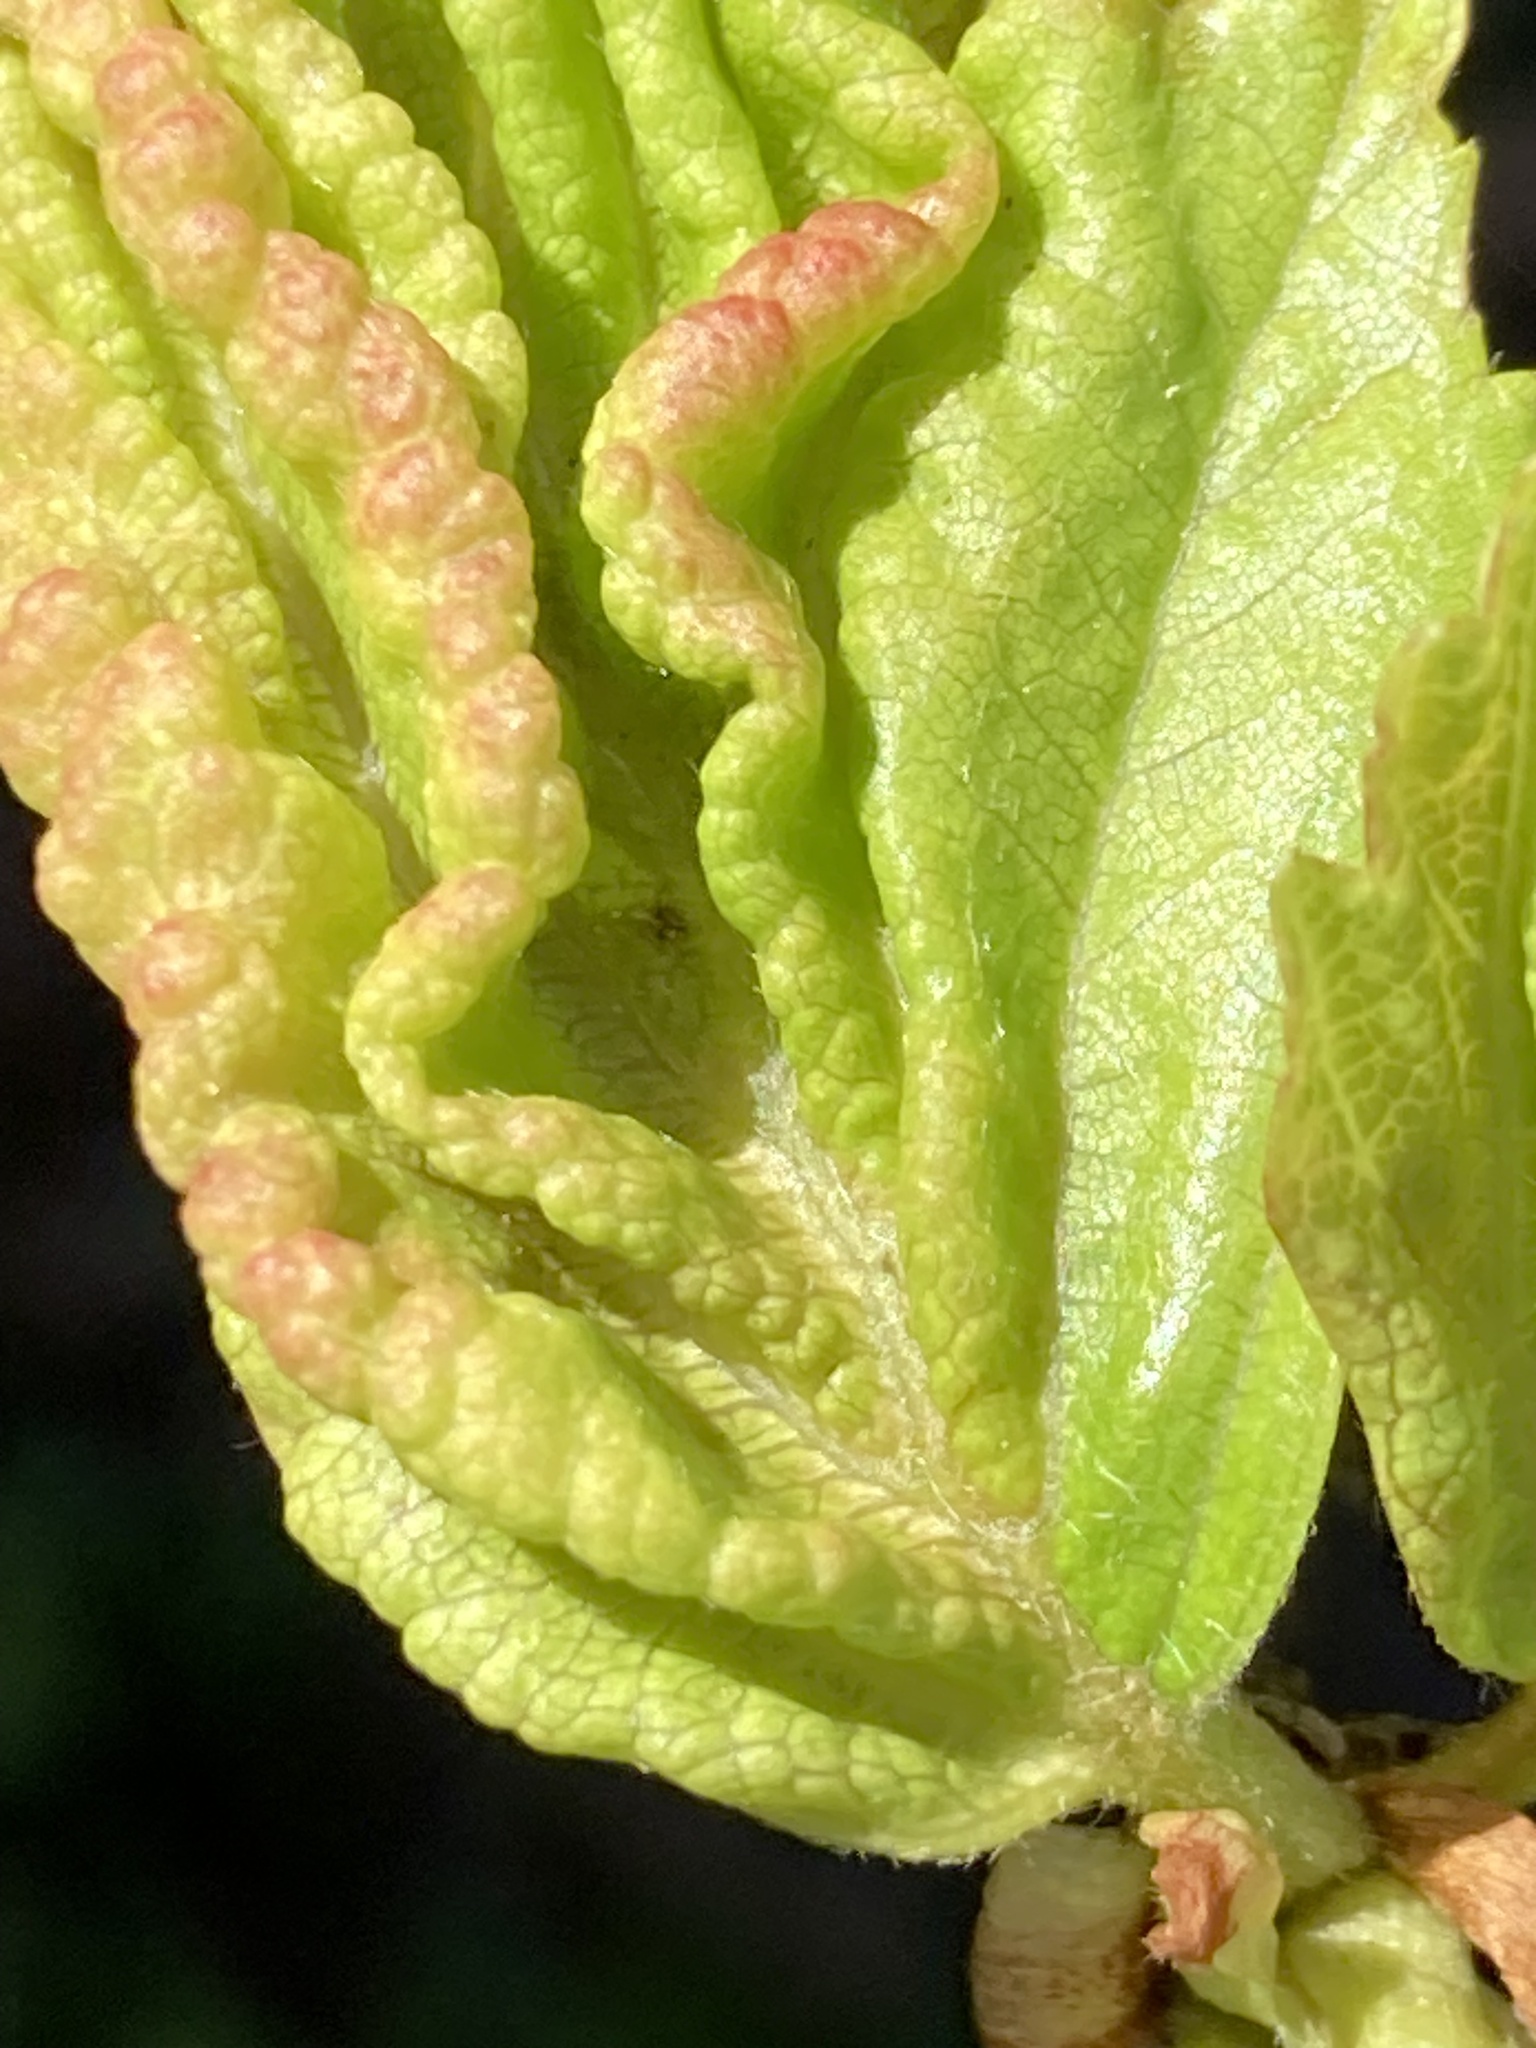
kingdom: Animalia
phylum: Arthropoda
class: Insecta
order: Hemiptera
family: Aphididae
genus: Hamamelistes
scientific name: Hamamelistes spinosus
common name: Witch hazel gall aphid
